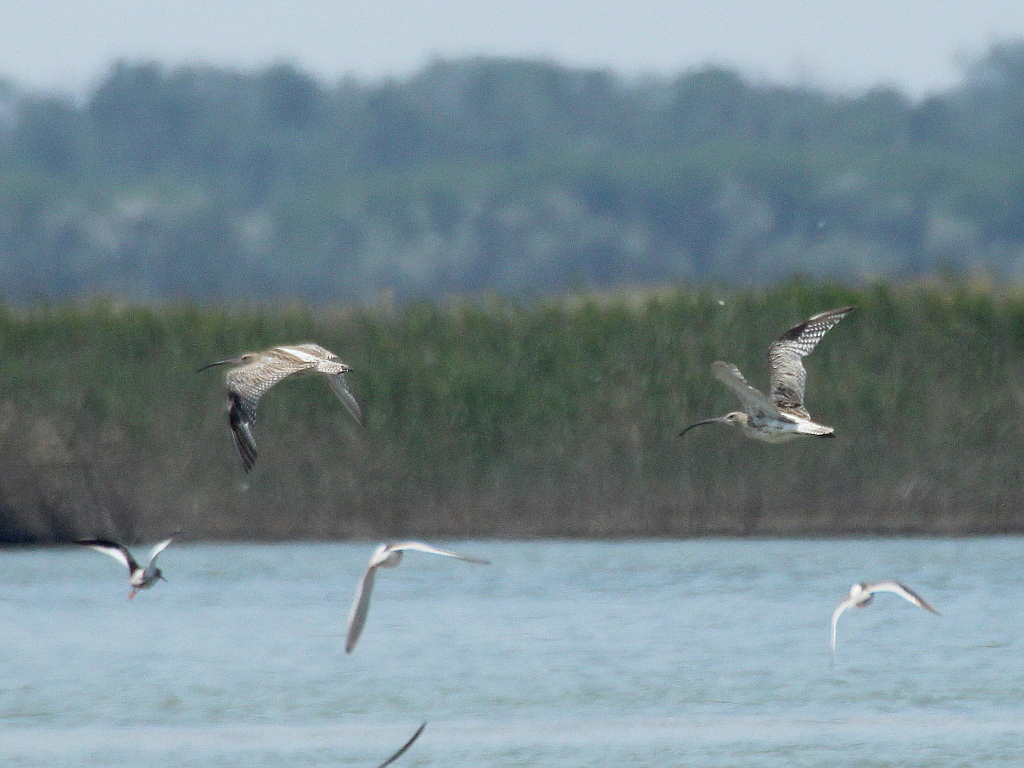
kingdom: Animalia
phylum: Chordata
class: Aves
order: Charadriiformes
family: Scolopacidae
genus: Numenius
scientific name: Numenius arquata
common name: Eurasian curlew
